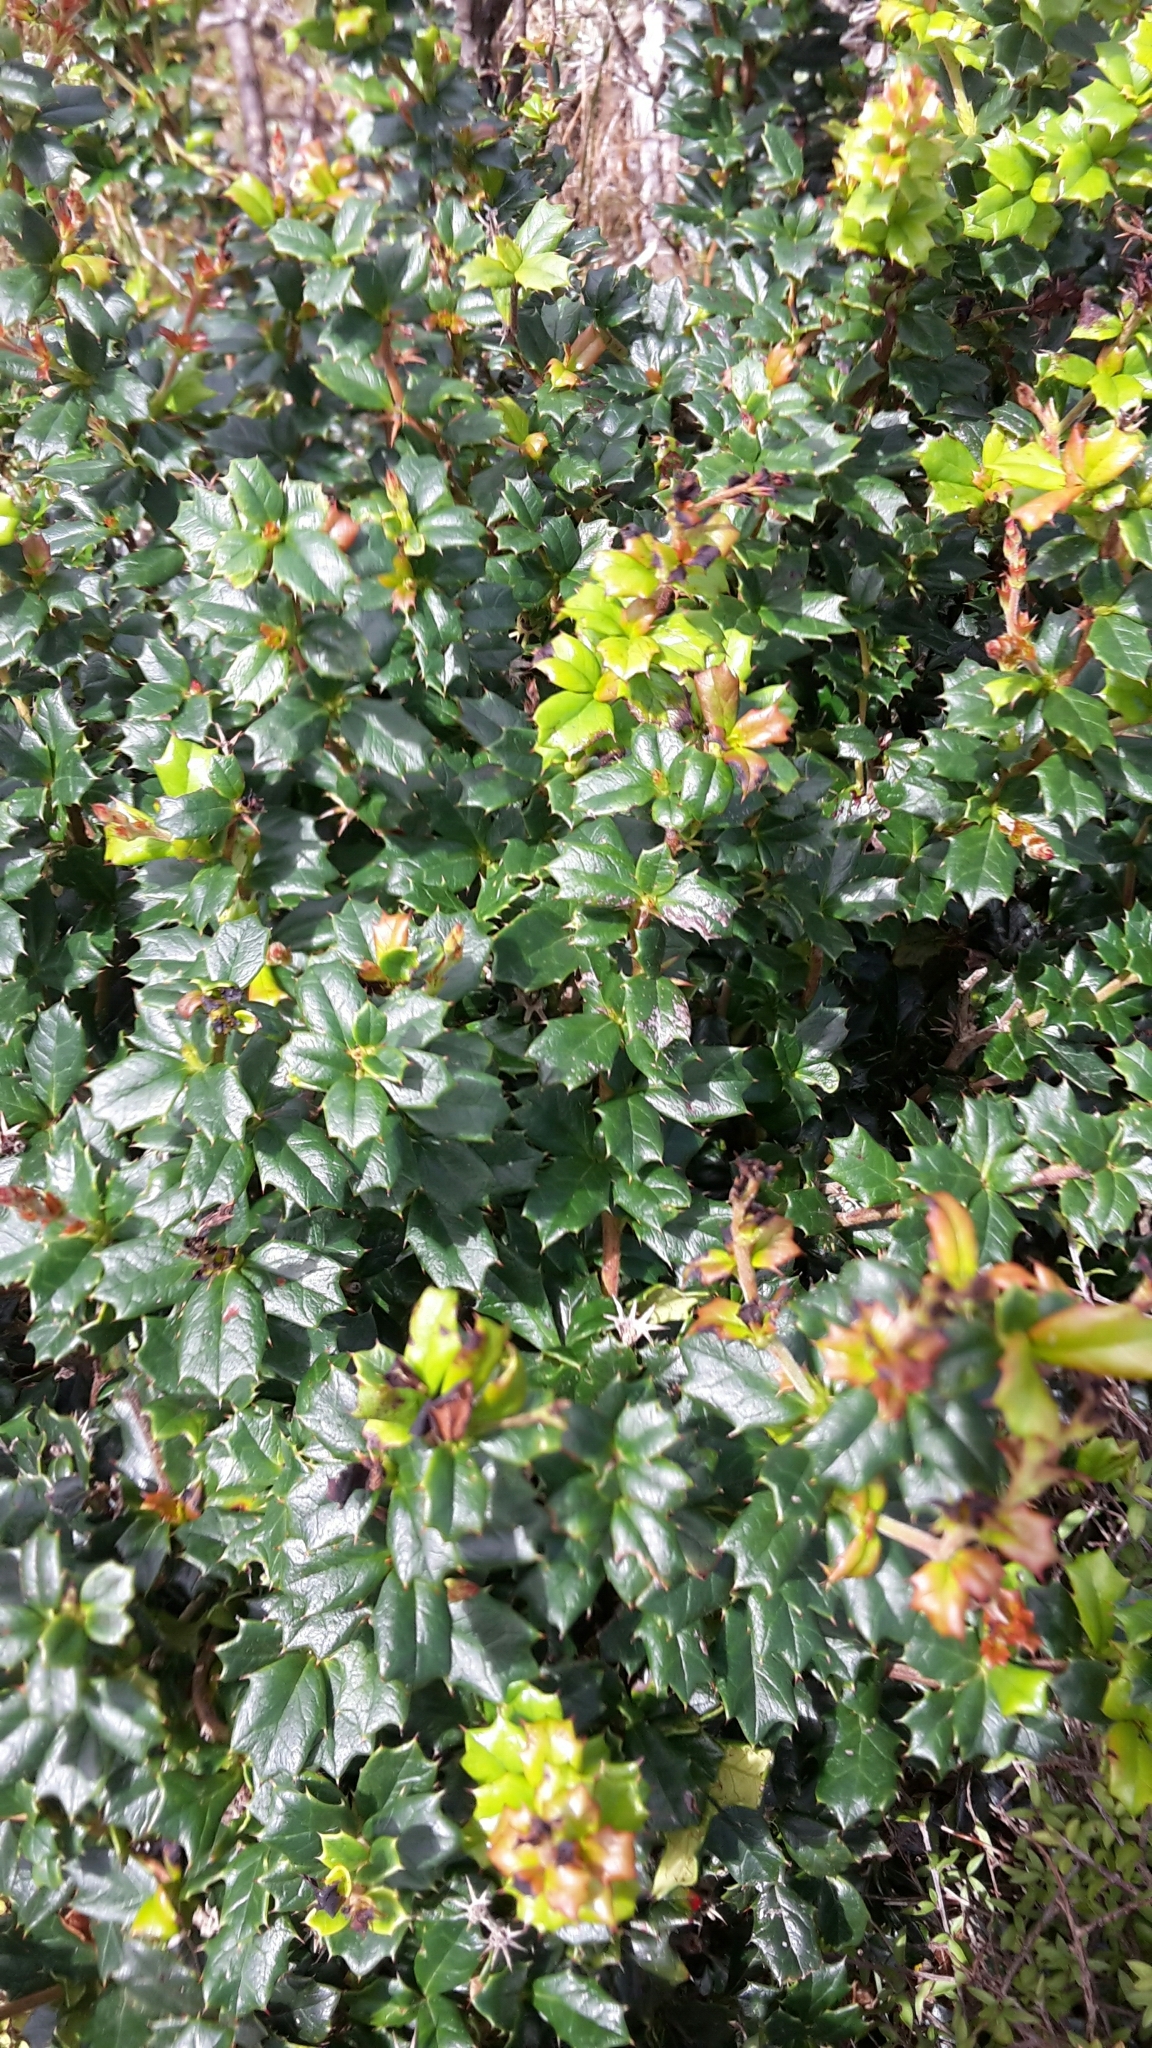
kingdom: Plantae
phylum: Tracheophyta
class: Magnoliopsida
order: Ranunculales
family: Berberidaceae
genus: Berberis
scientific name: Berberis darwinii
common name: Darwin's barberry
